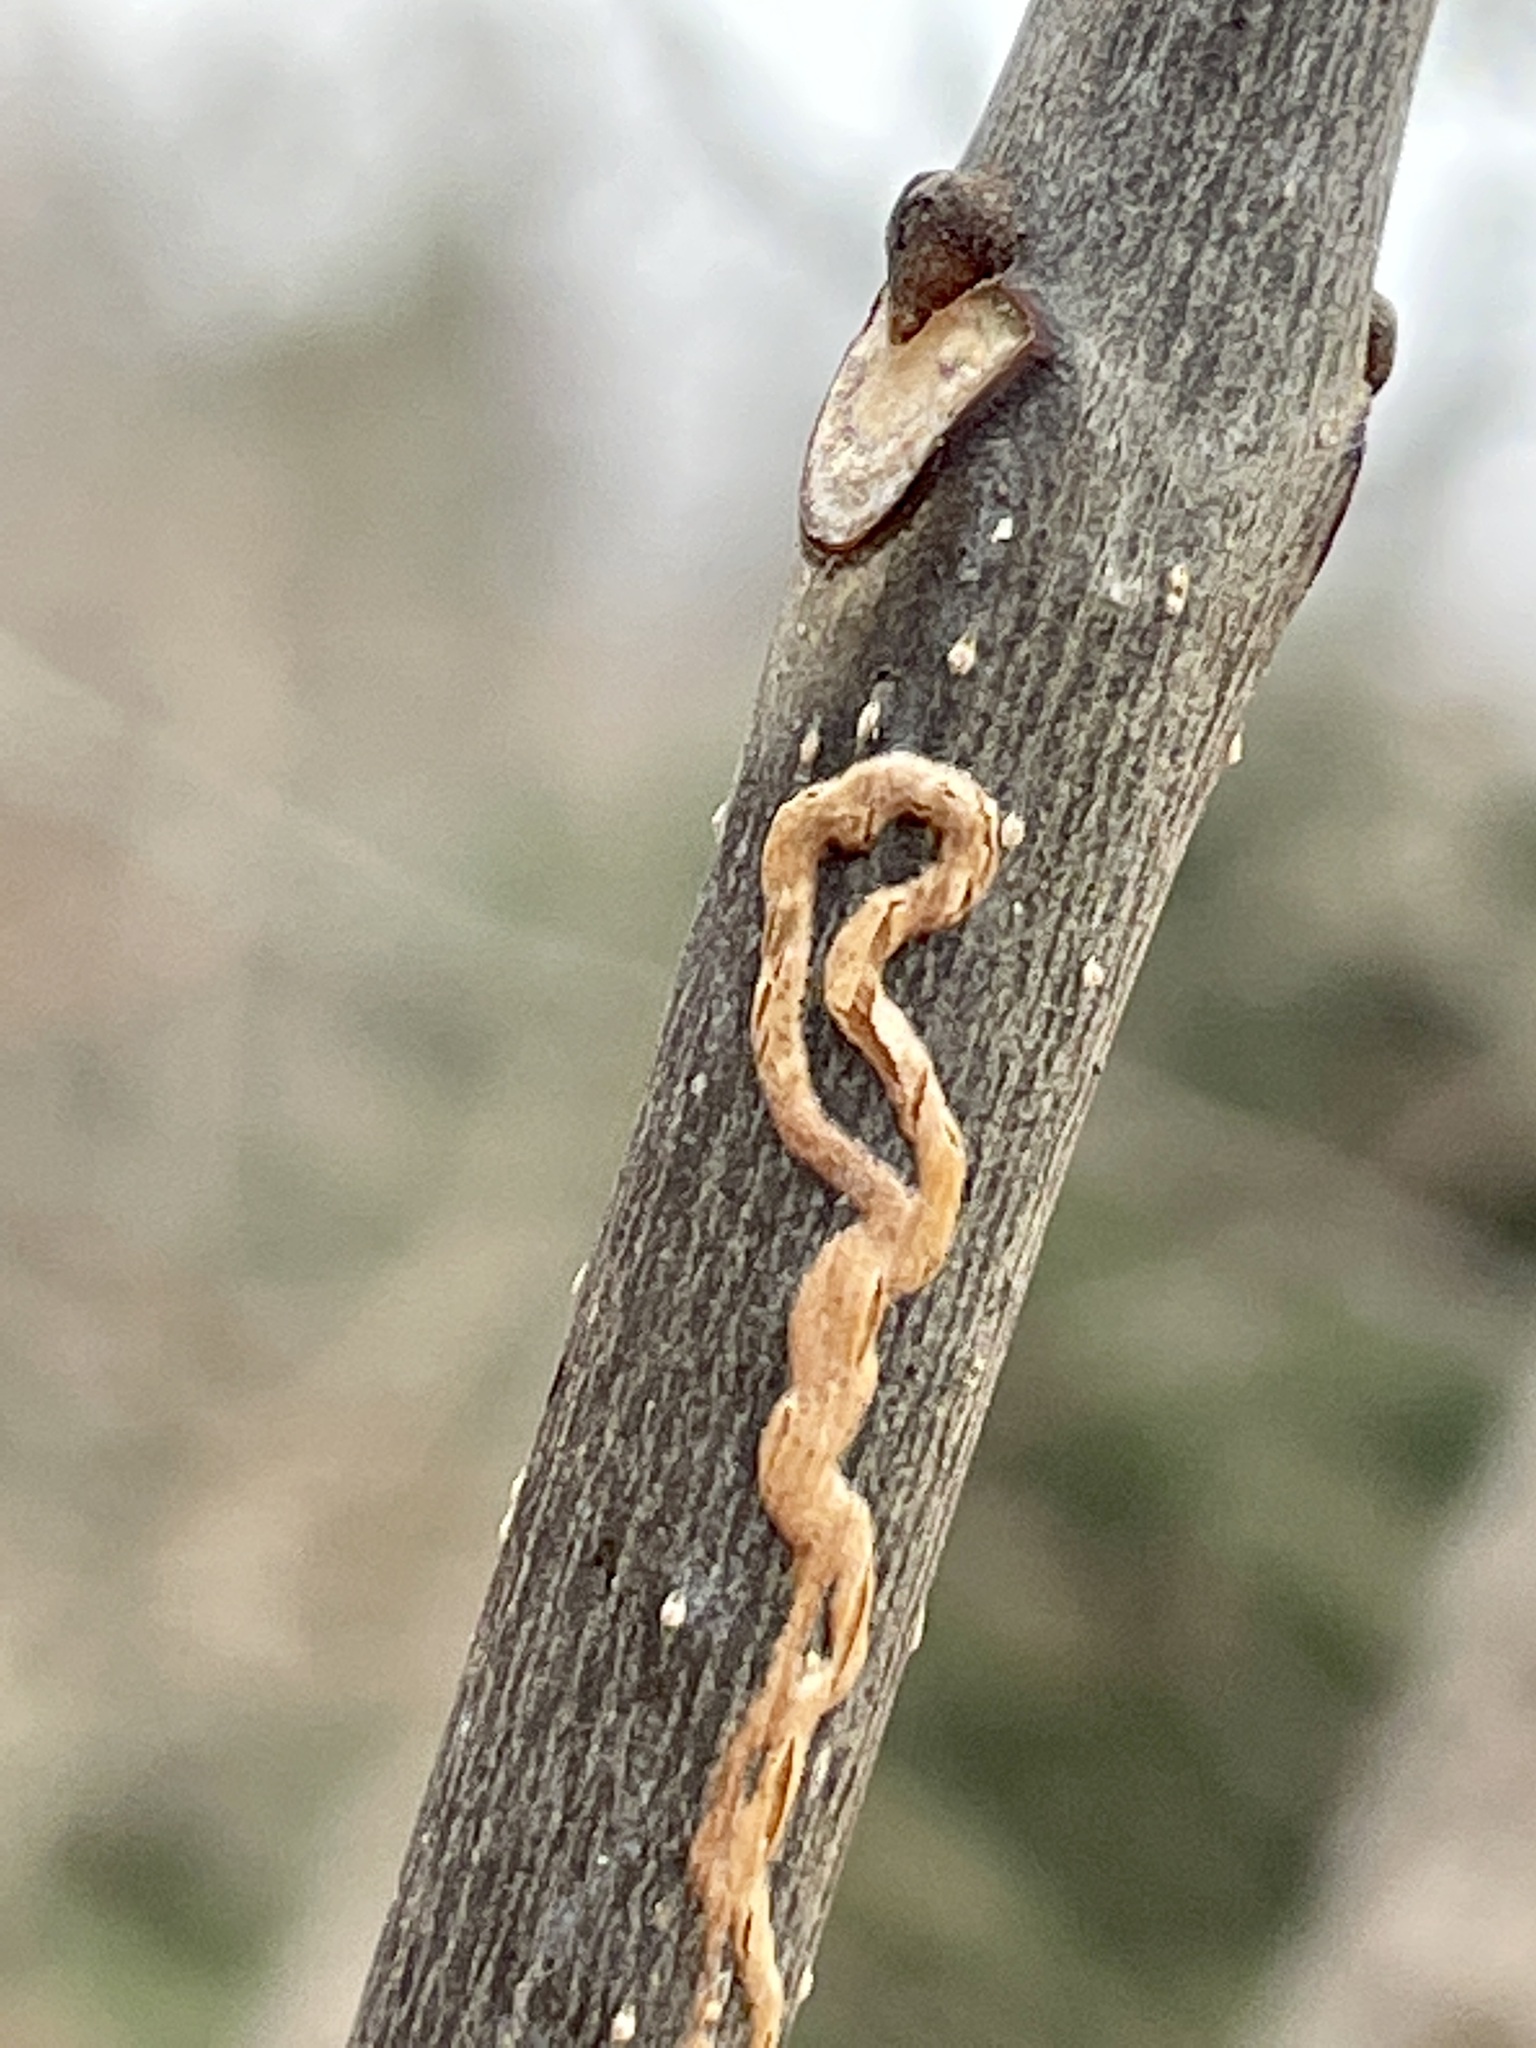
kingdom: Animalia
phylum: Arthropoda
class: Insecta
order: Lepidoptera
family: Gracillariidae
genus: Marmara
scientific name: Marmara fraxinicola
